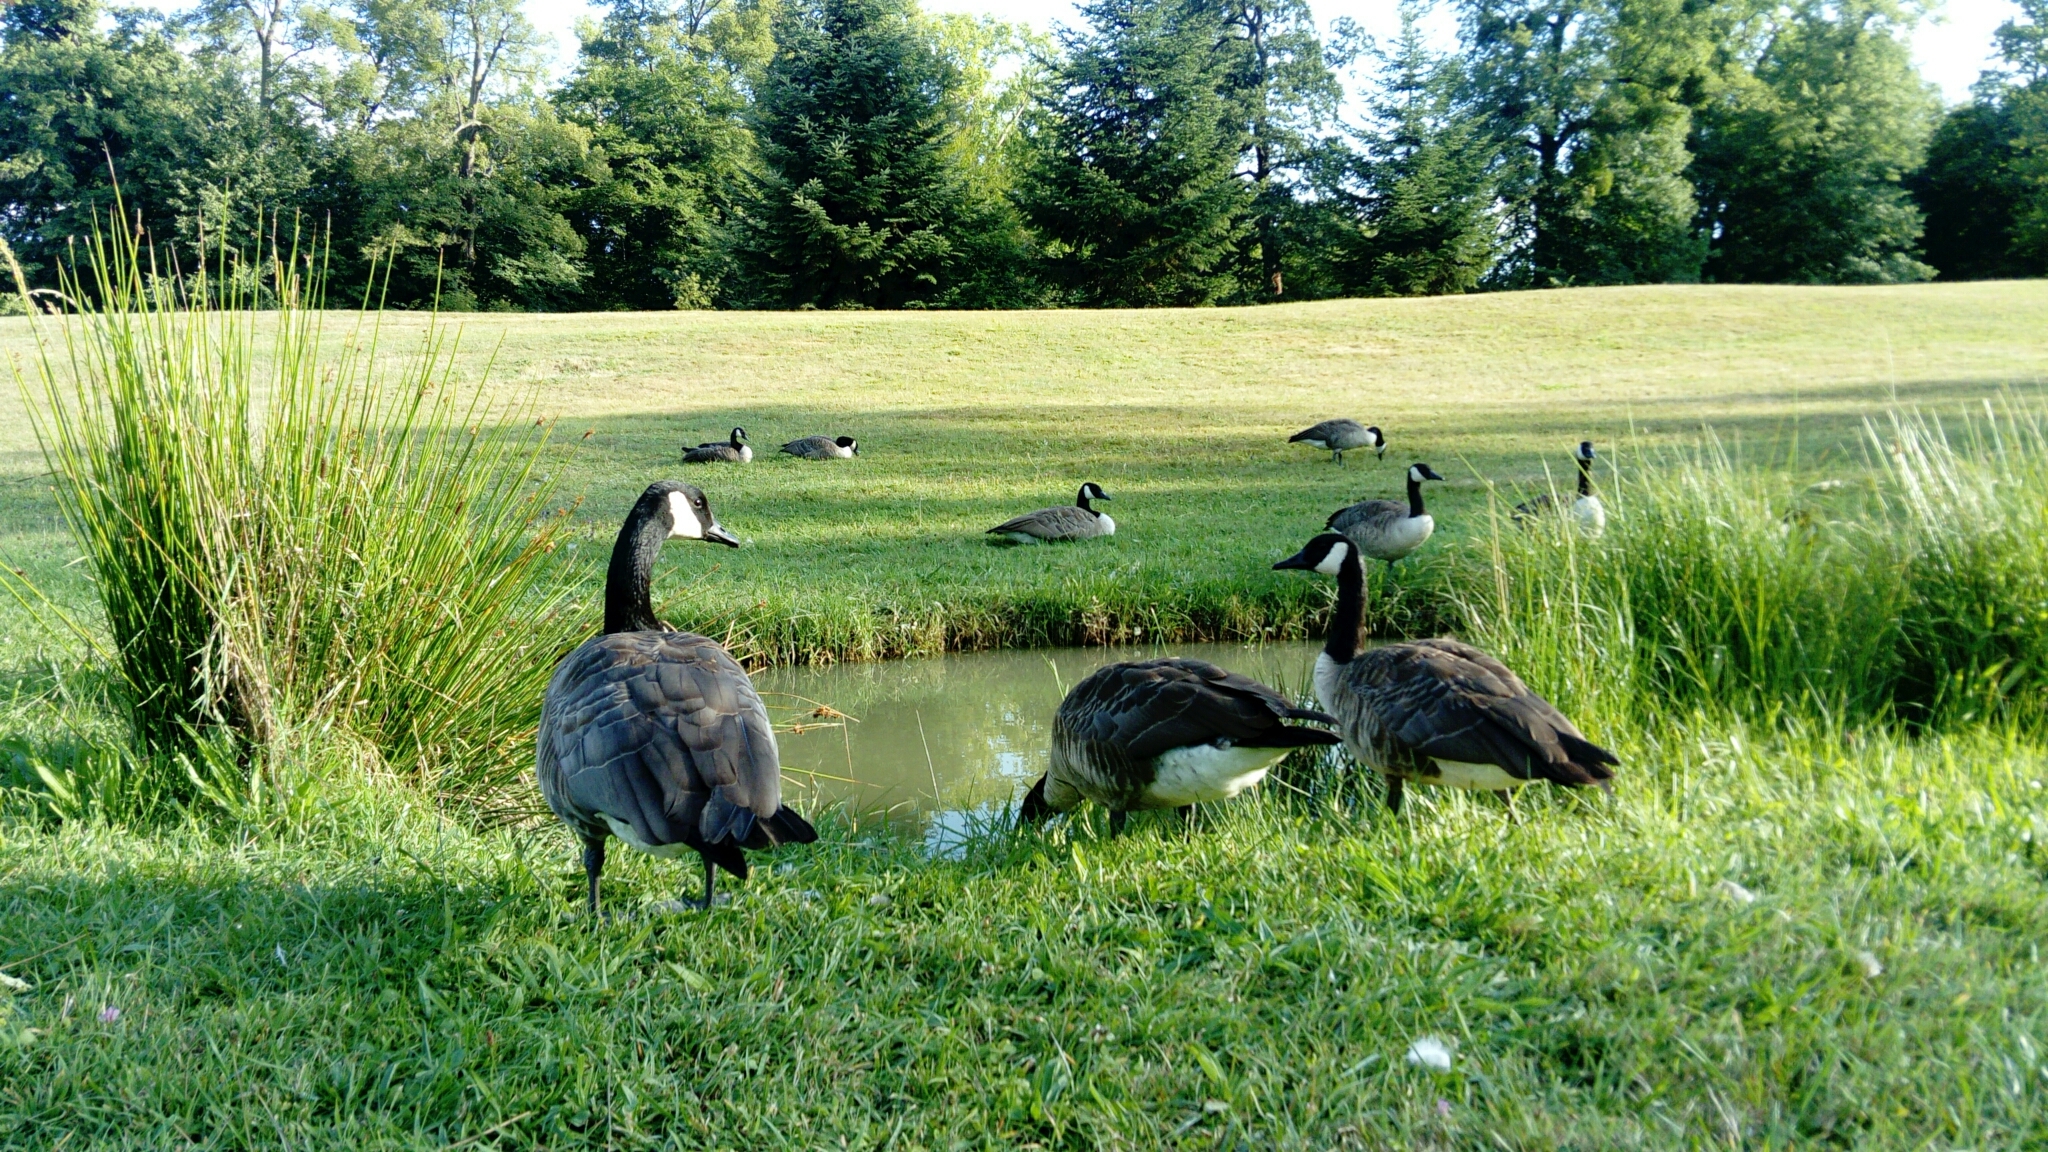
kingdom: Animalia
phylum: Chordata
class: Aves
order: Anseriformes
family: Anatidae
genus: Branta
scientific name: Branta canadensis
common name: Canada goose
